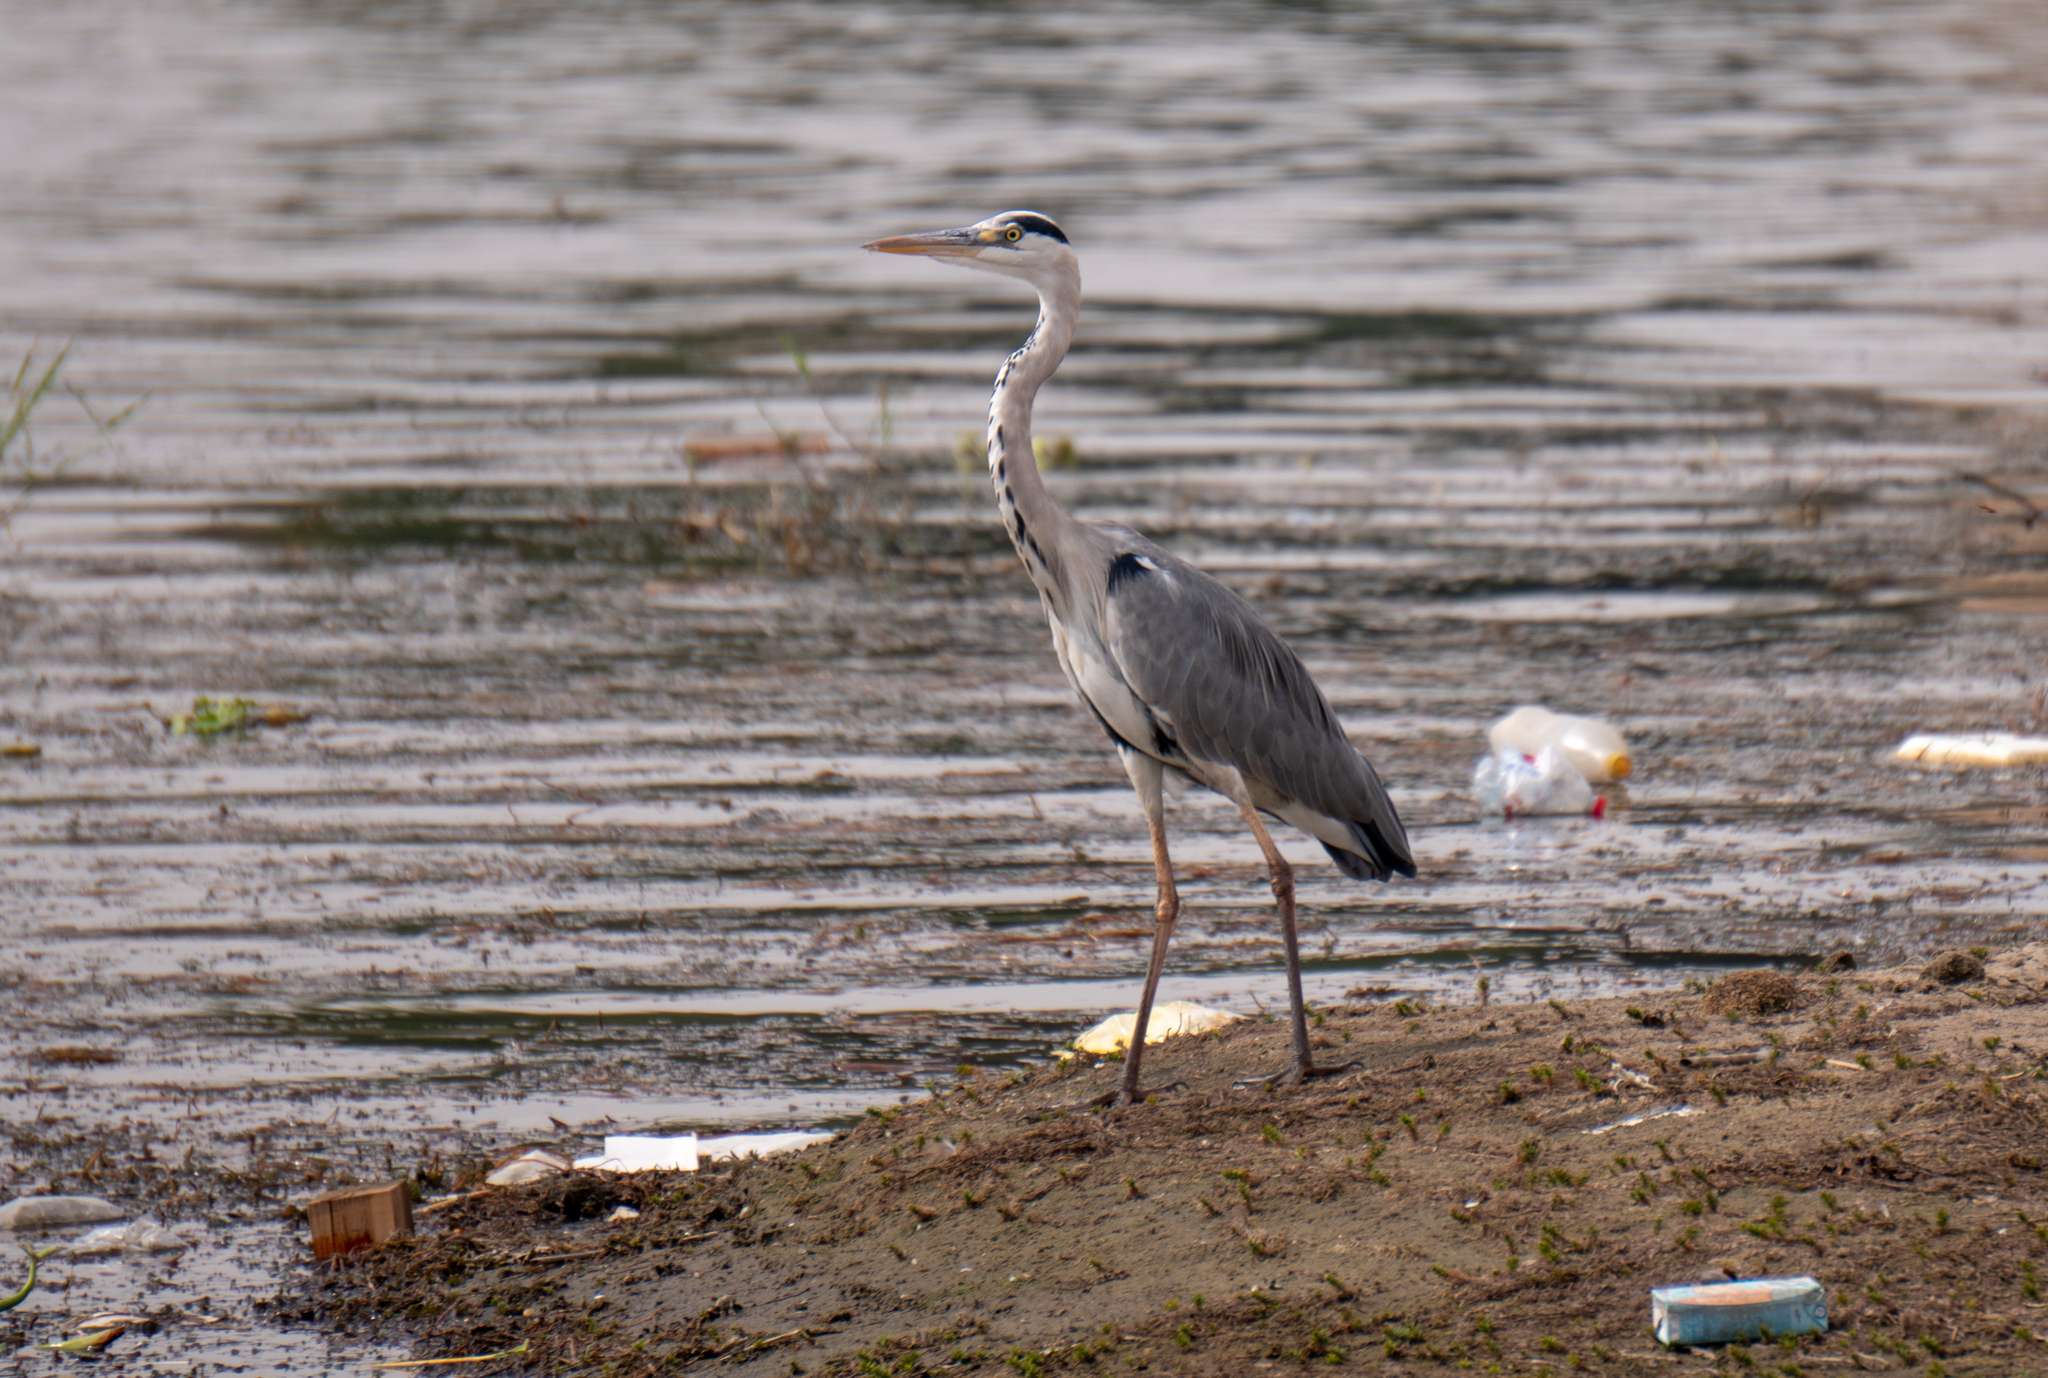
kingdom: Animalia
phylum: Chordata
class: Aves
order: Pelecaniformes
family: Ardeidae
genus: Ardea
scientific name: Ardea cinerea
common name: Grey heron
